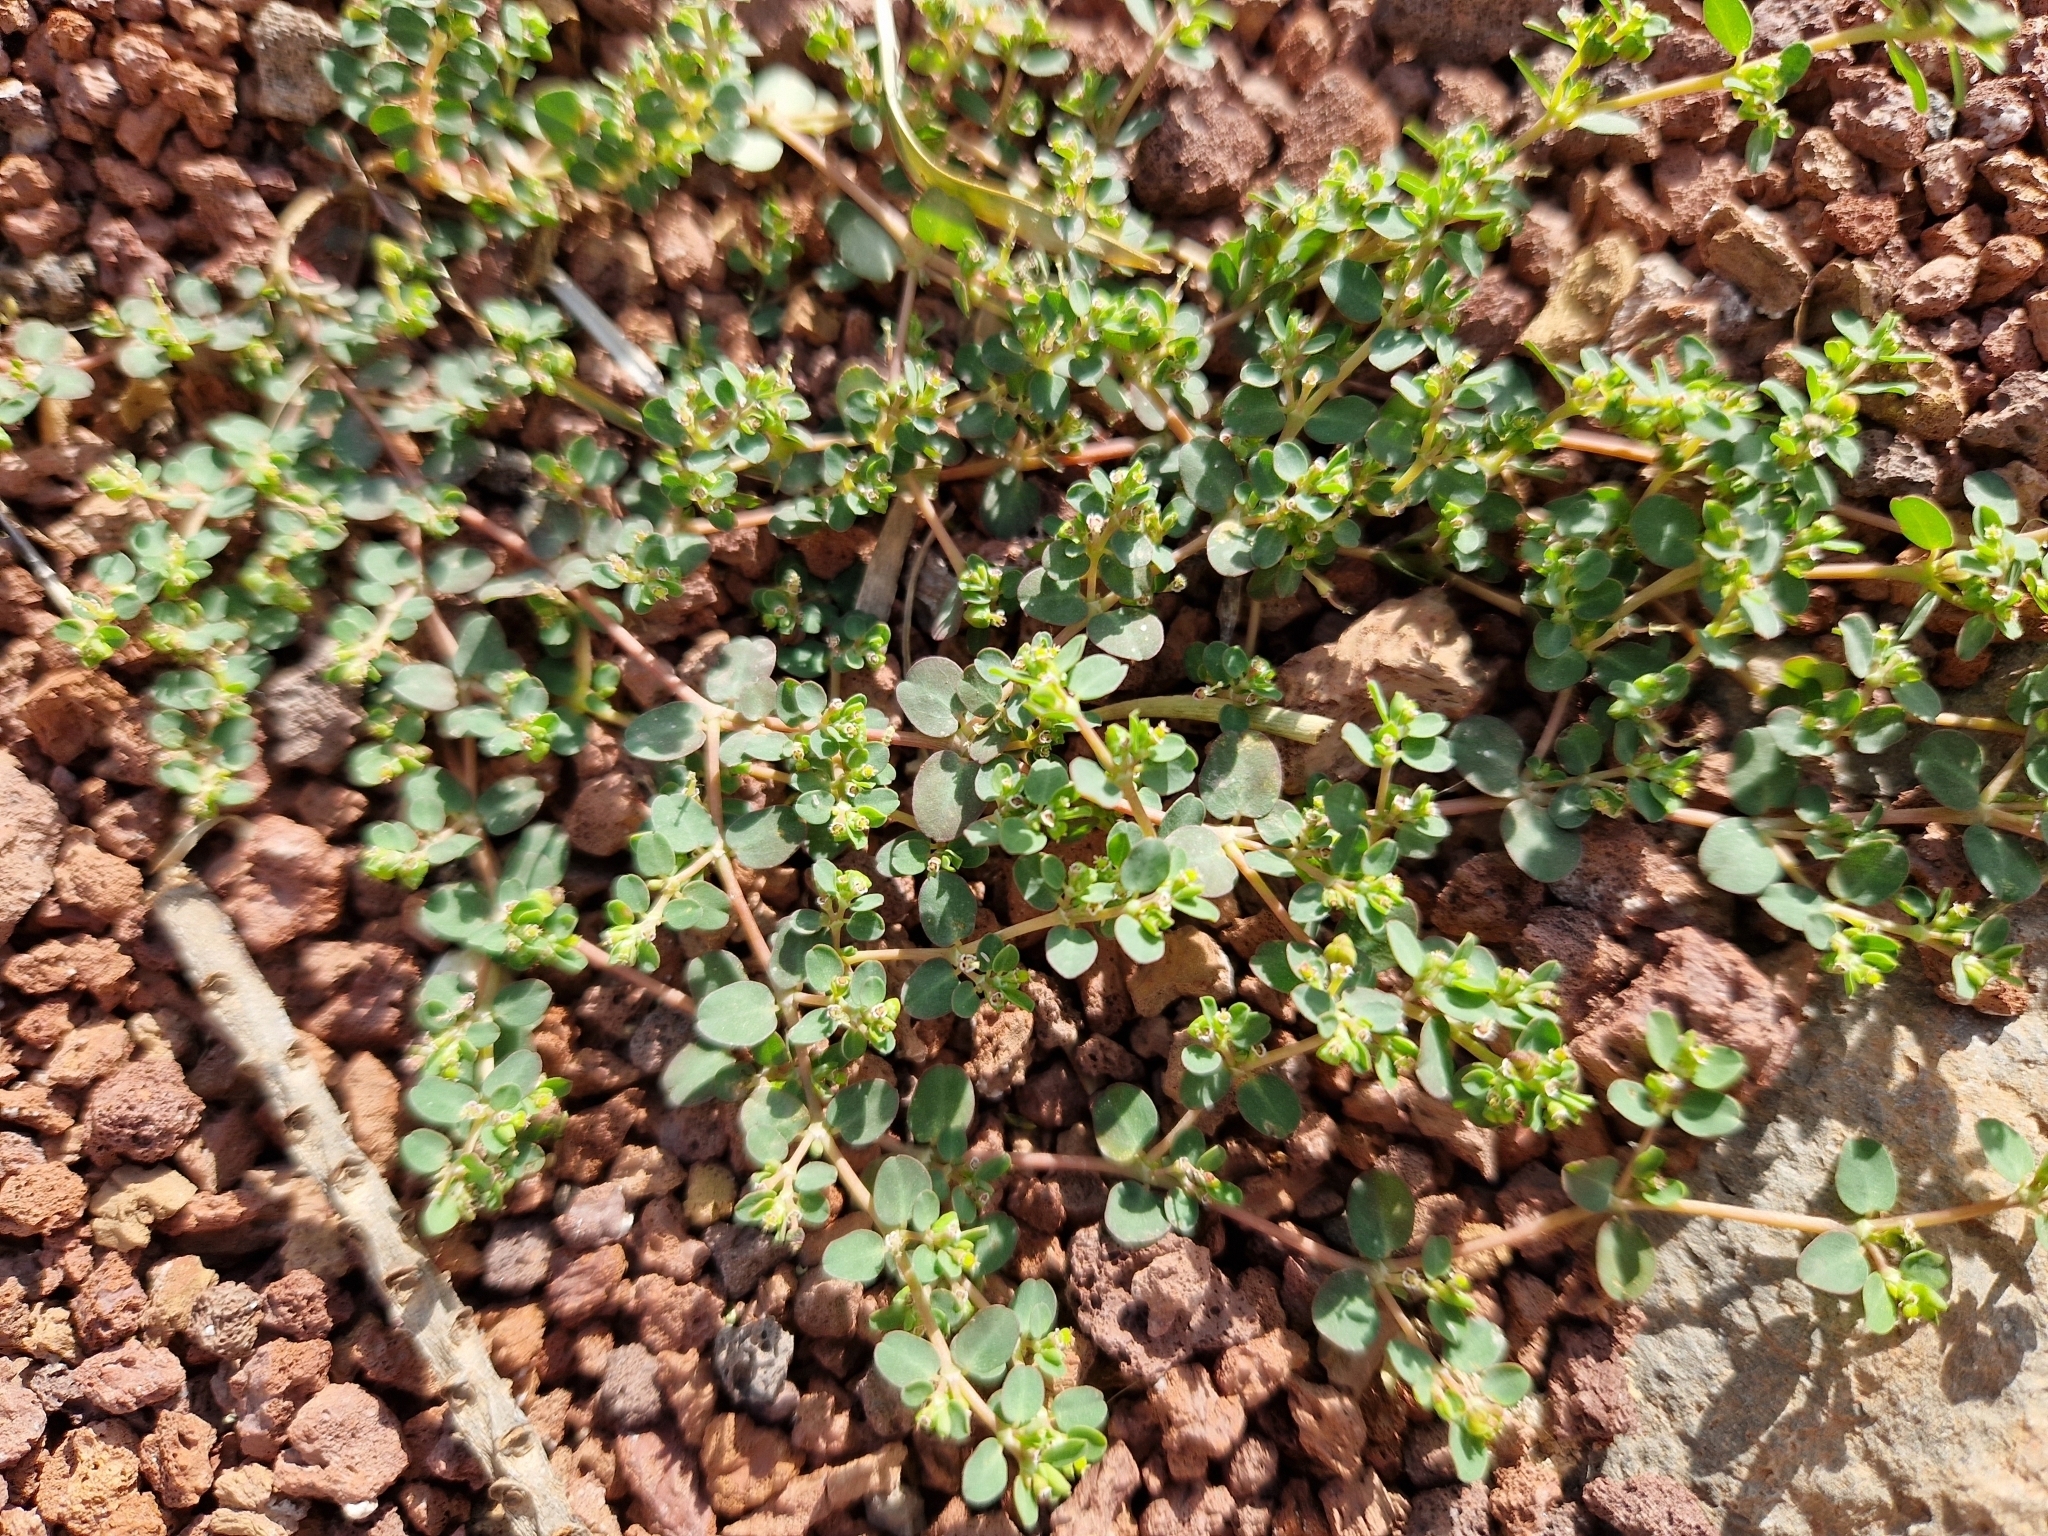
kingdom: Plantae
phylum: Tracheophyta
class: Magnoliopsida
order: Malpighiales
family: Euphorbiaceae
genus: Euphorbia
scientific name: Euphorbia serpens
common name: Matted sandmat
